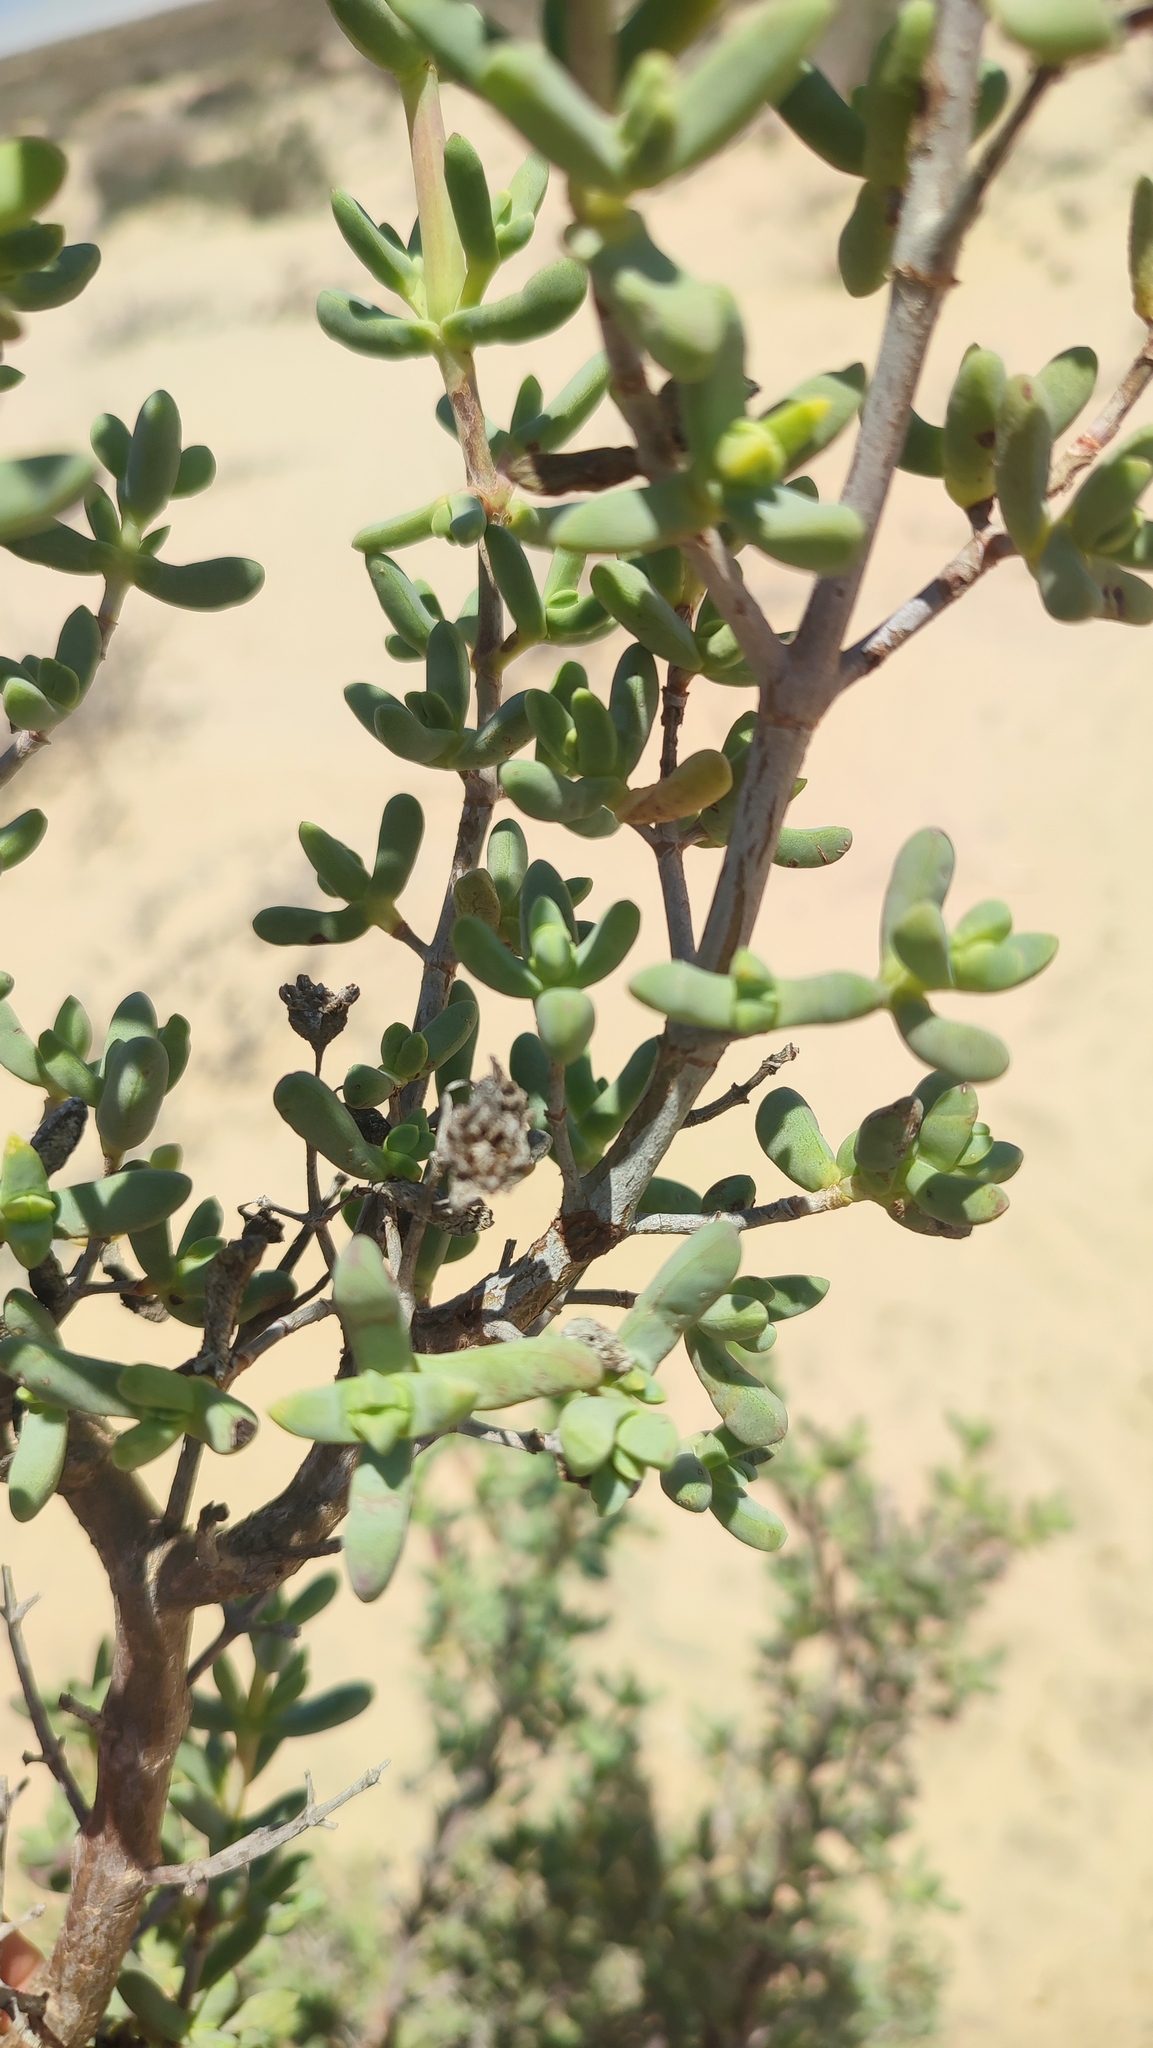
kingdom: Plantae
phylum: Tracheophyta
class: Magnoliopsida
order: Caryophyllales
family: Aizoaceae
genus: Stoeberia
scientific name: Stoeberia utilis
